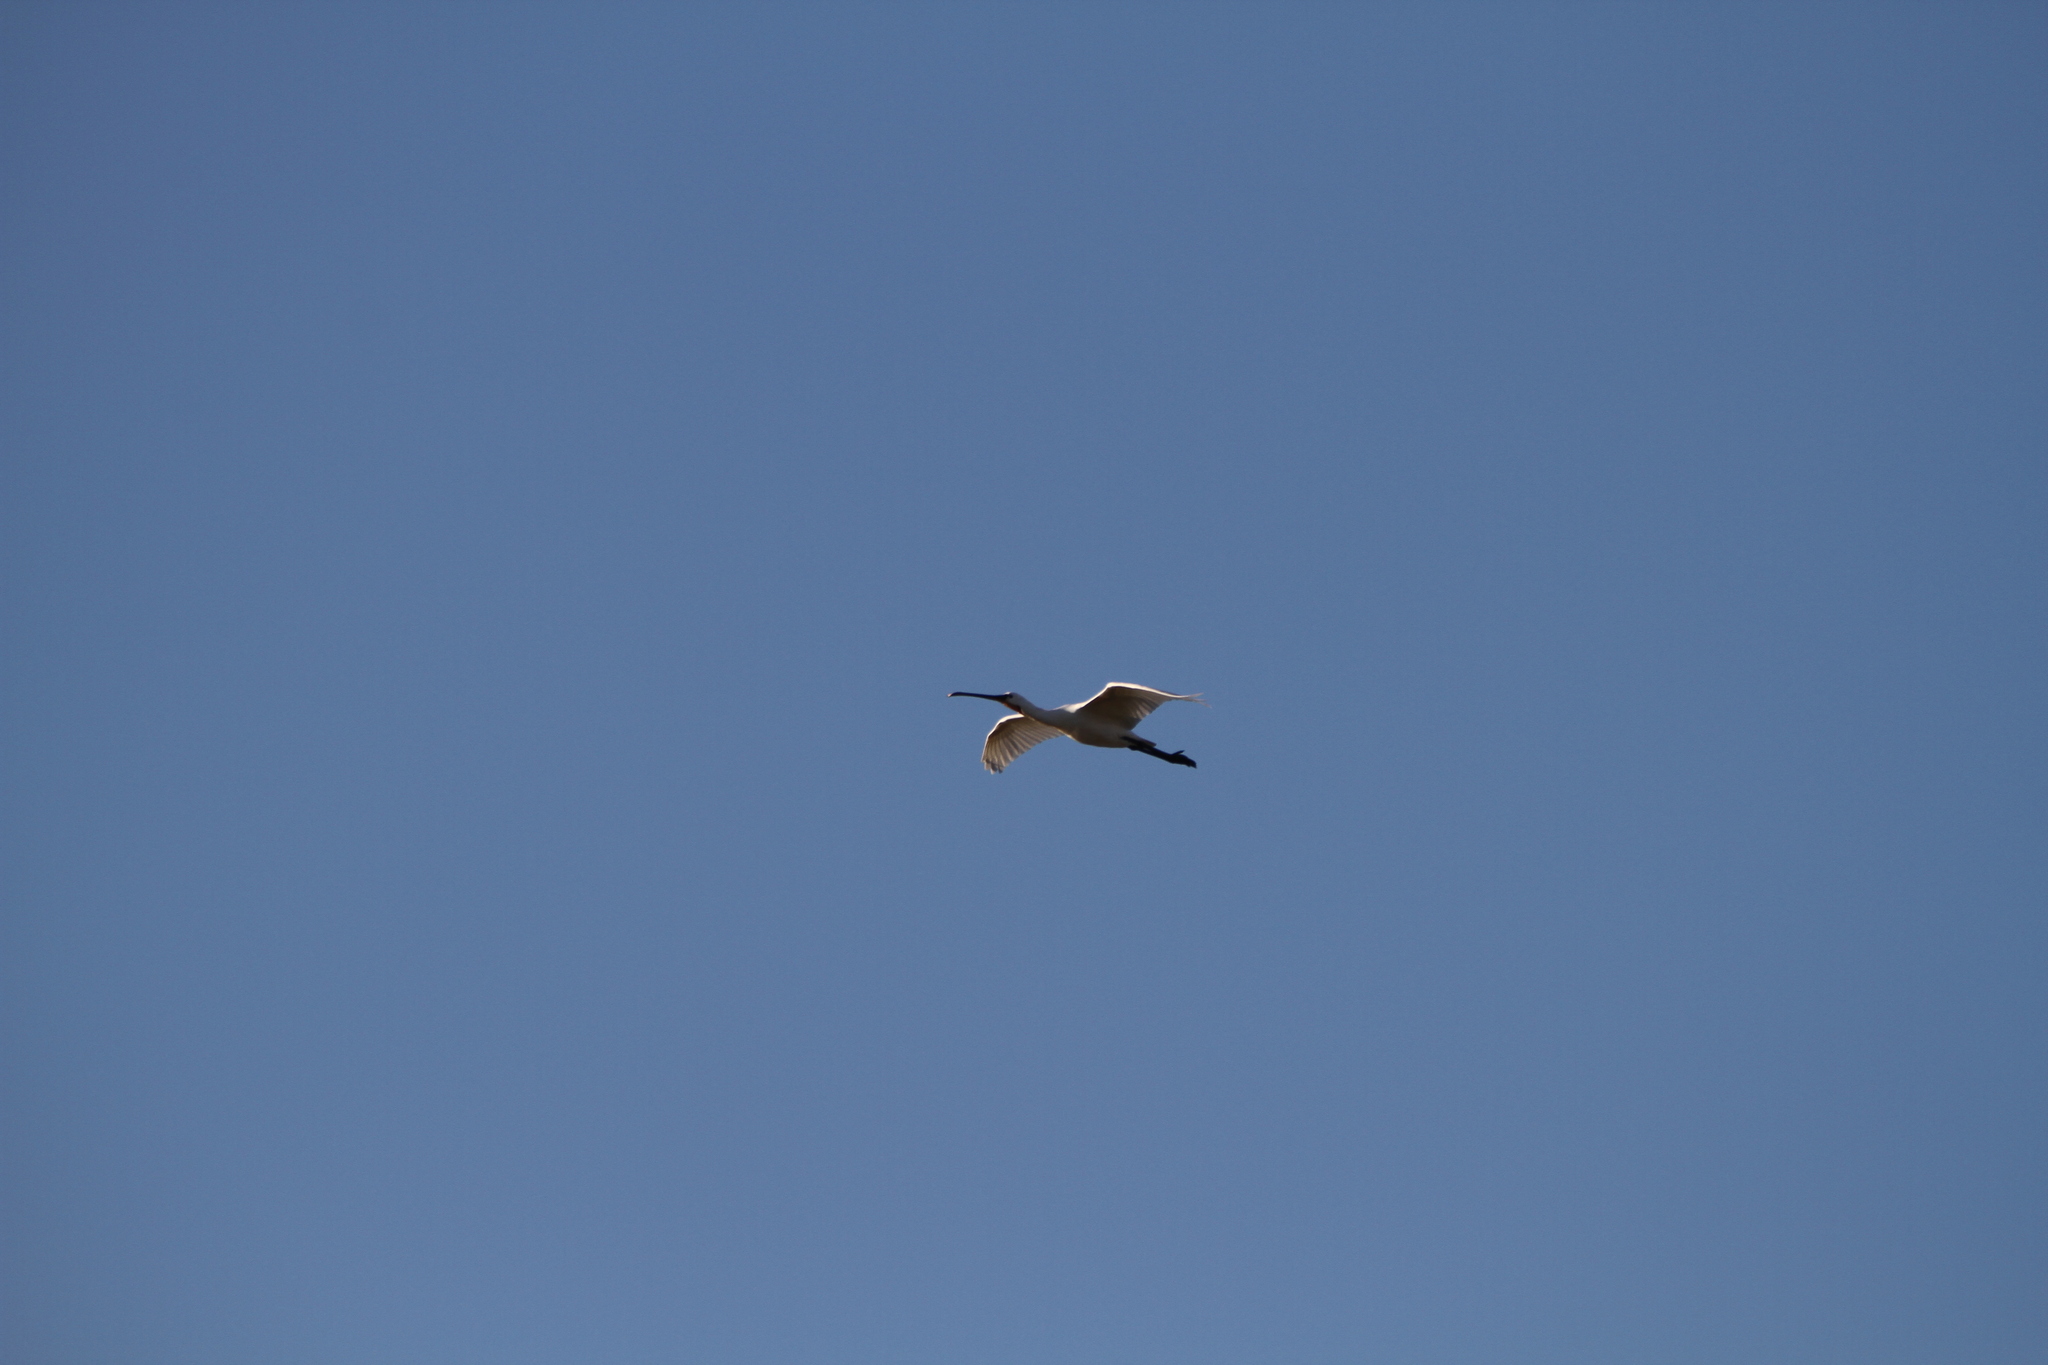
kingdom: Animalia
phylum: Chordata
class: Aves
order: Pelecaniformes
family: Threskiornithidae
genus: Platalea
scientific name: Platalea leucorodia
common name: Eurasian spoonbill
